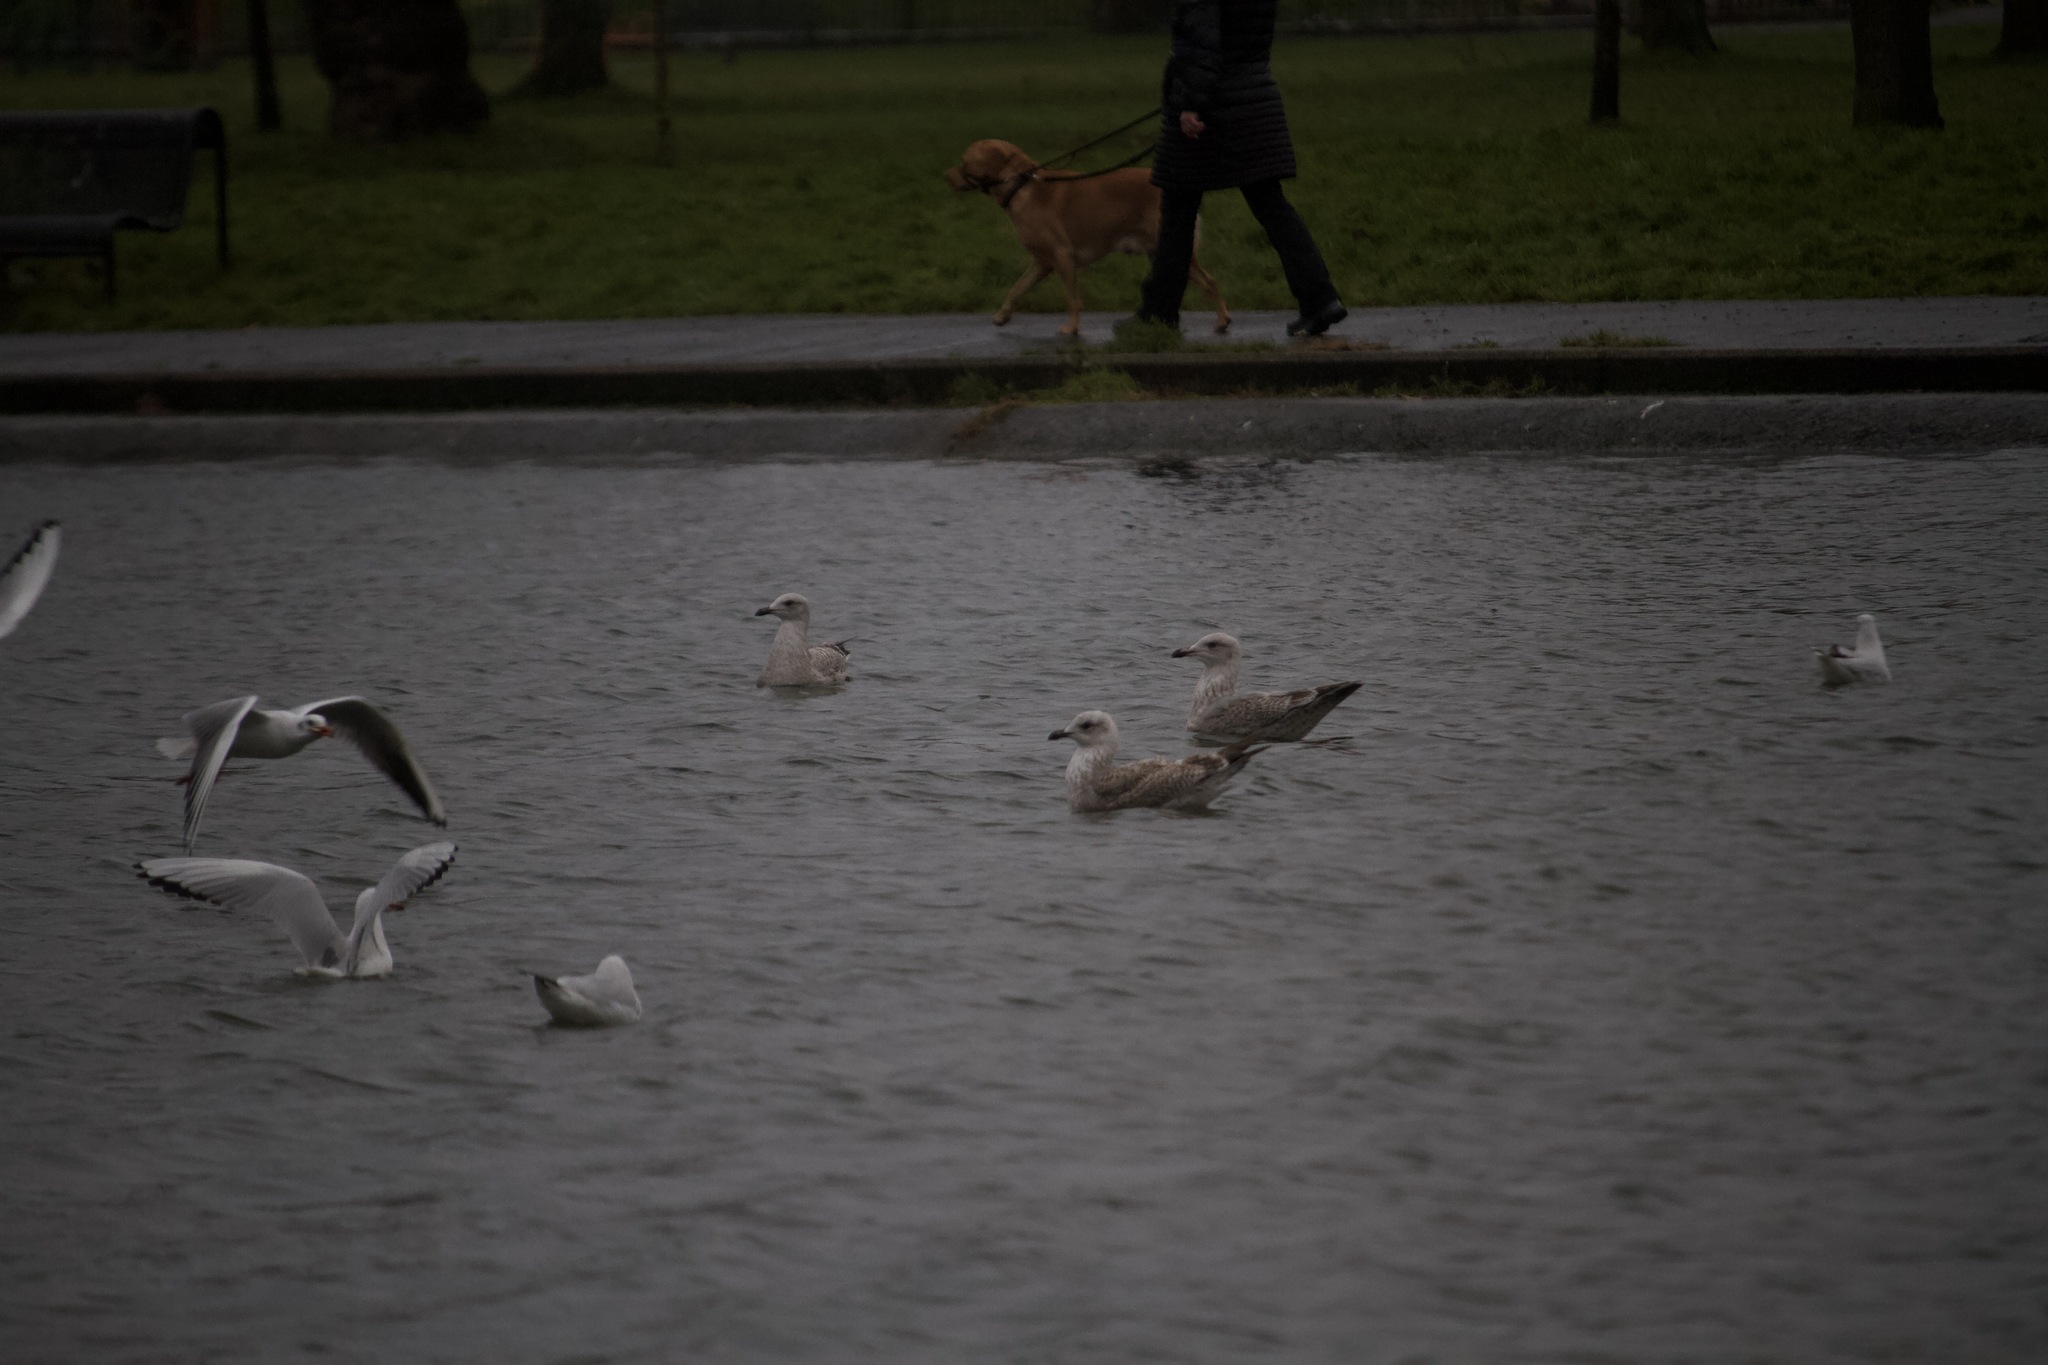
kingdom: Animalia
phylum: Chordata
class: Aves
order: Charadriiformes
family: Laridae
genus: Larus
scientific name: Larus argentatus
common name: Herring gull
